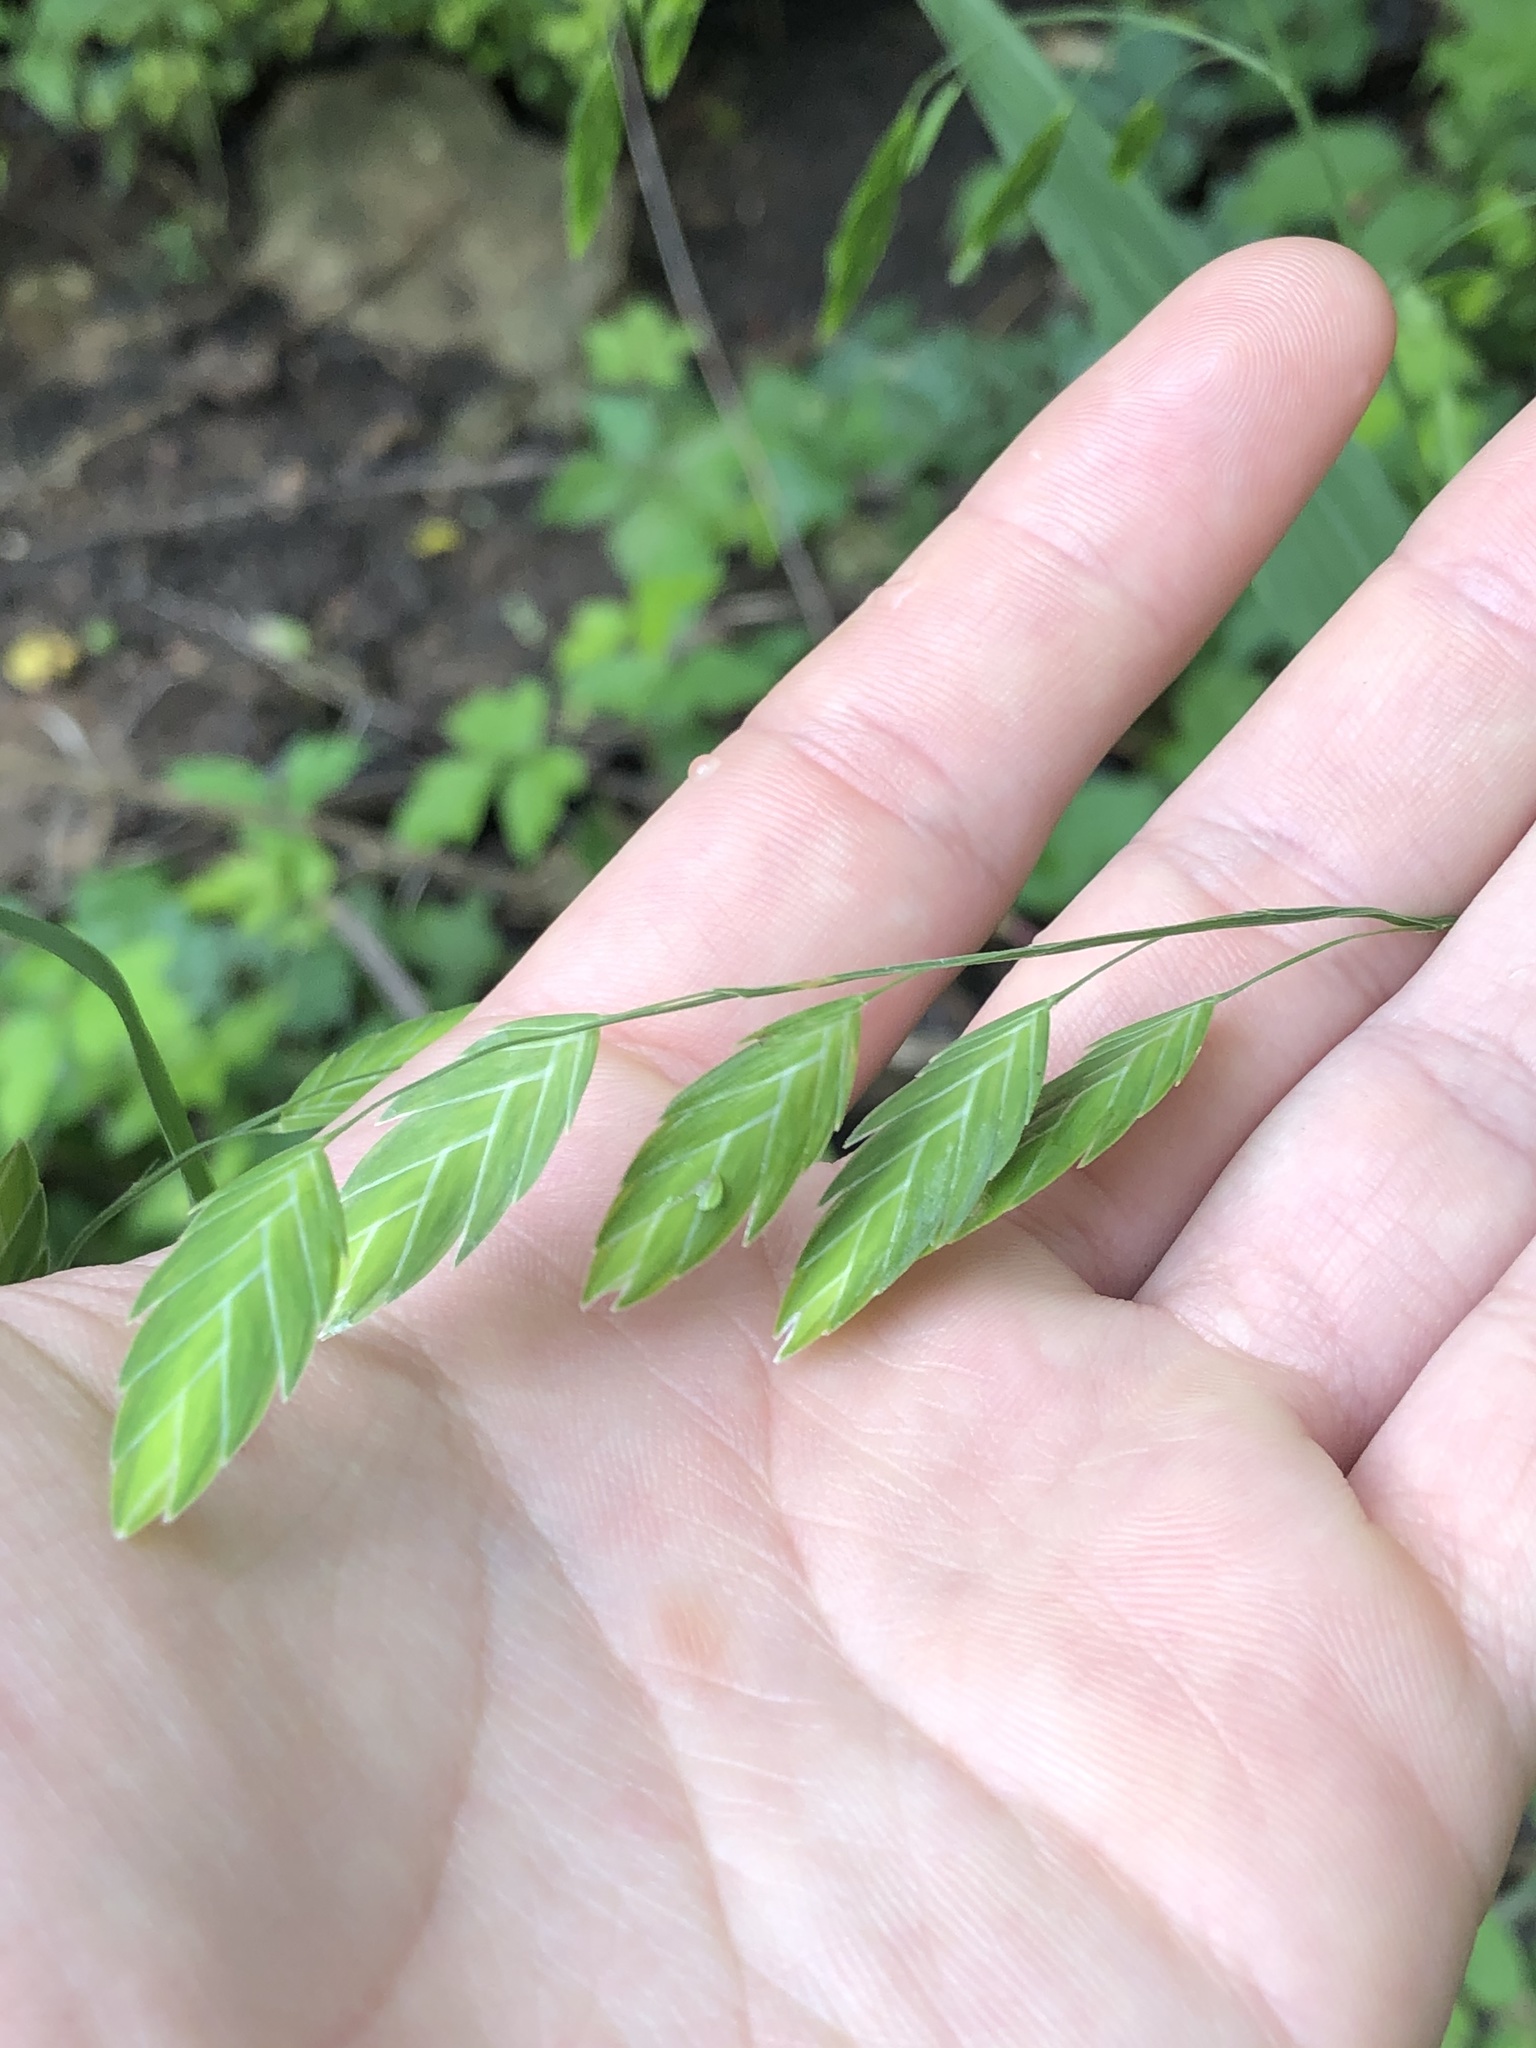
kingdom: Plantae
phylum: Tracheophyta
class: Liliopsida
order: Poales
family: Poaceae
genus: Chasmanthium
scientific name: Chasmanthium latifolium
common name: Broad-leaved chasmanthium
